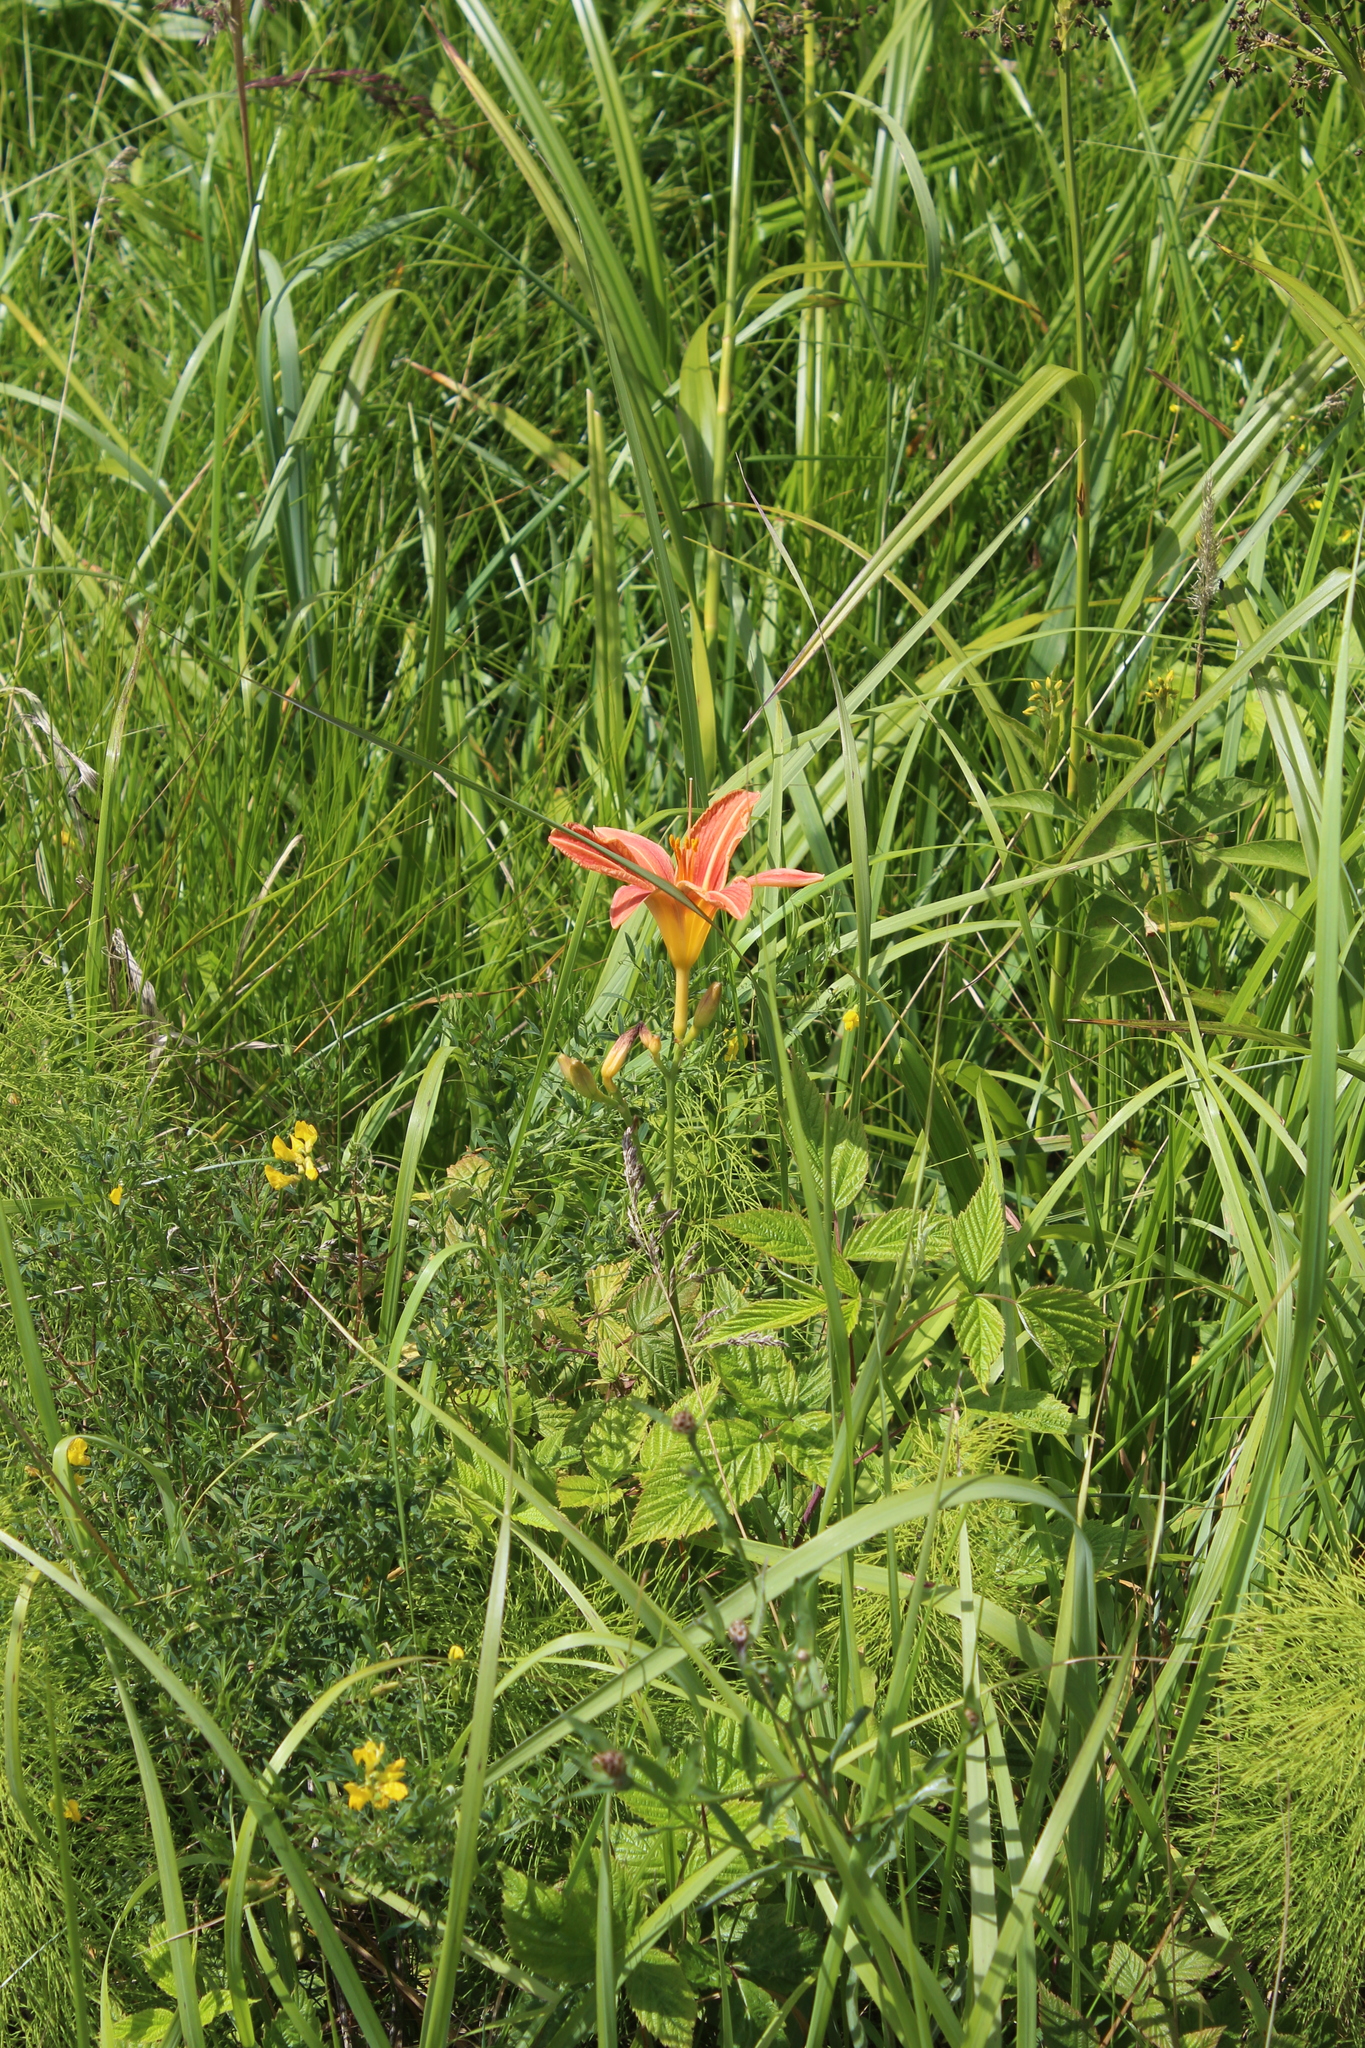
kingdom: Plantae
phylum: Tracheophyta
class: Liliopsida
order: Asparagales
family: Asphodelaceae
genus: Hemerocallis
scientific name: Hemerocallis fulva
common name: Orange day-lily
